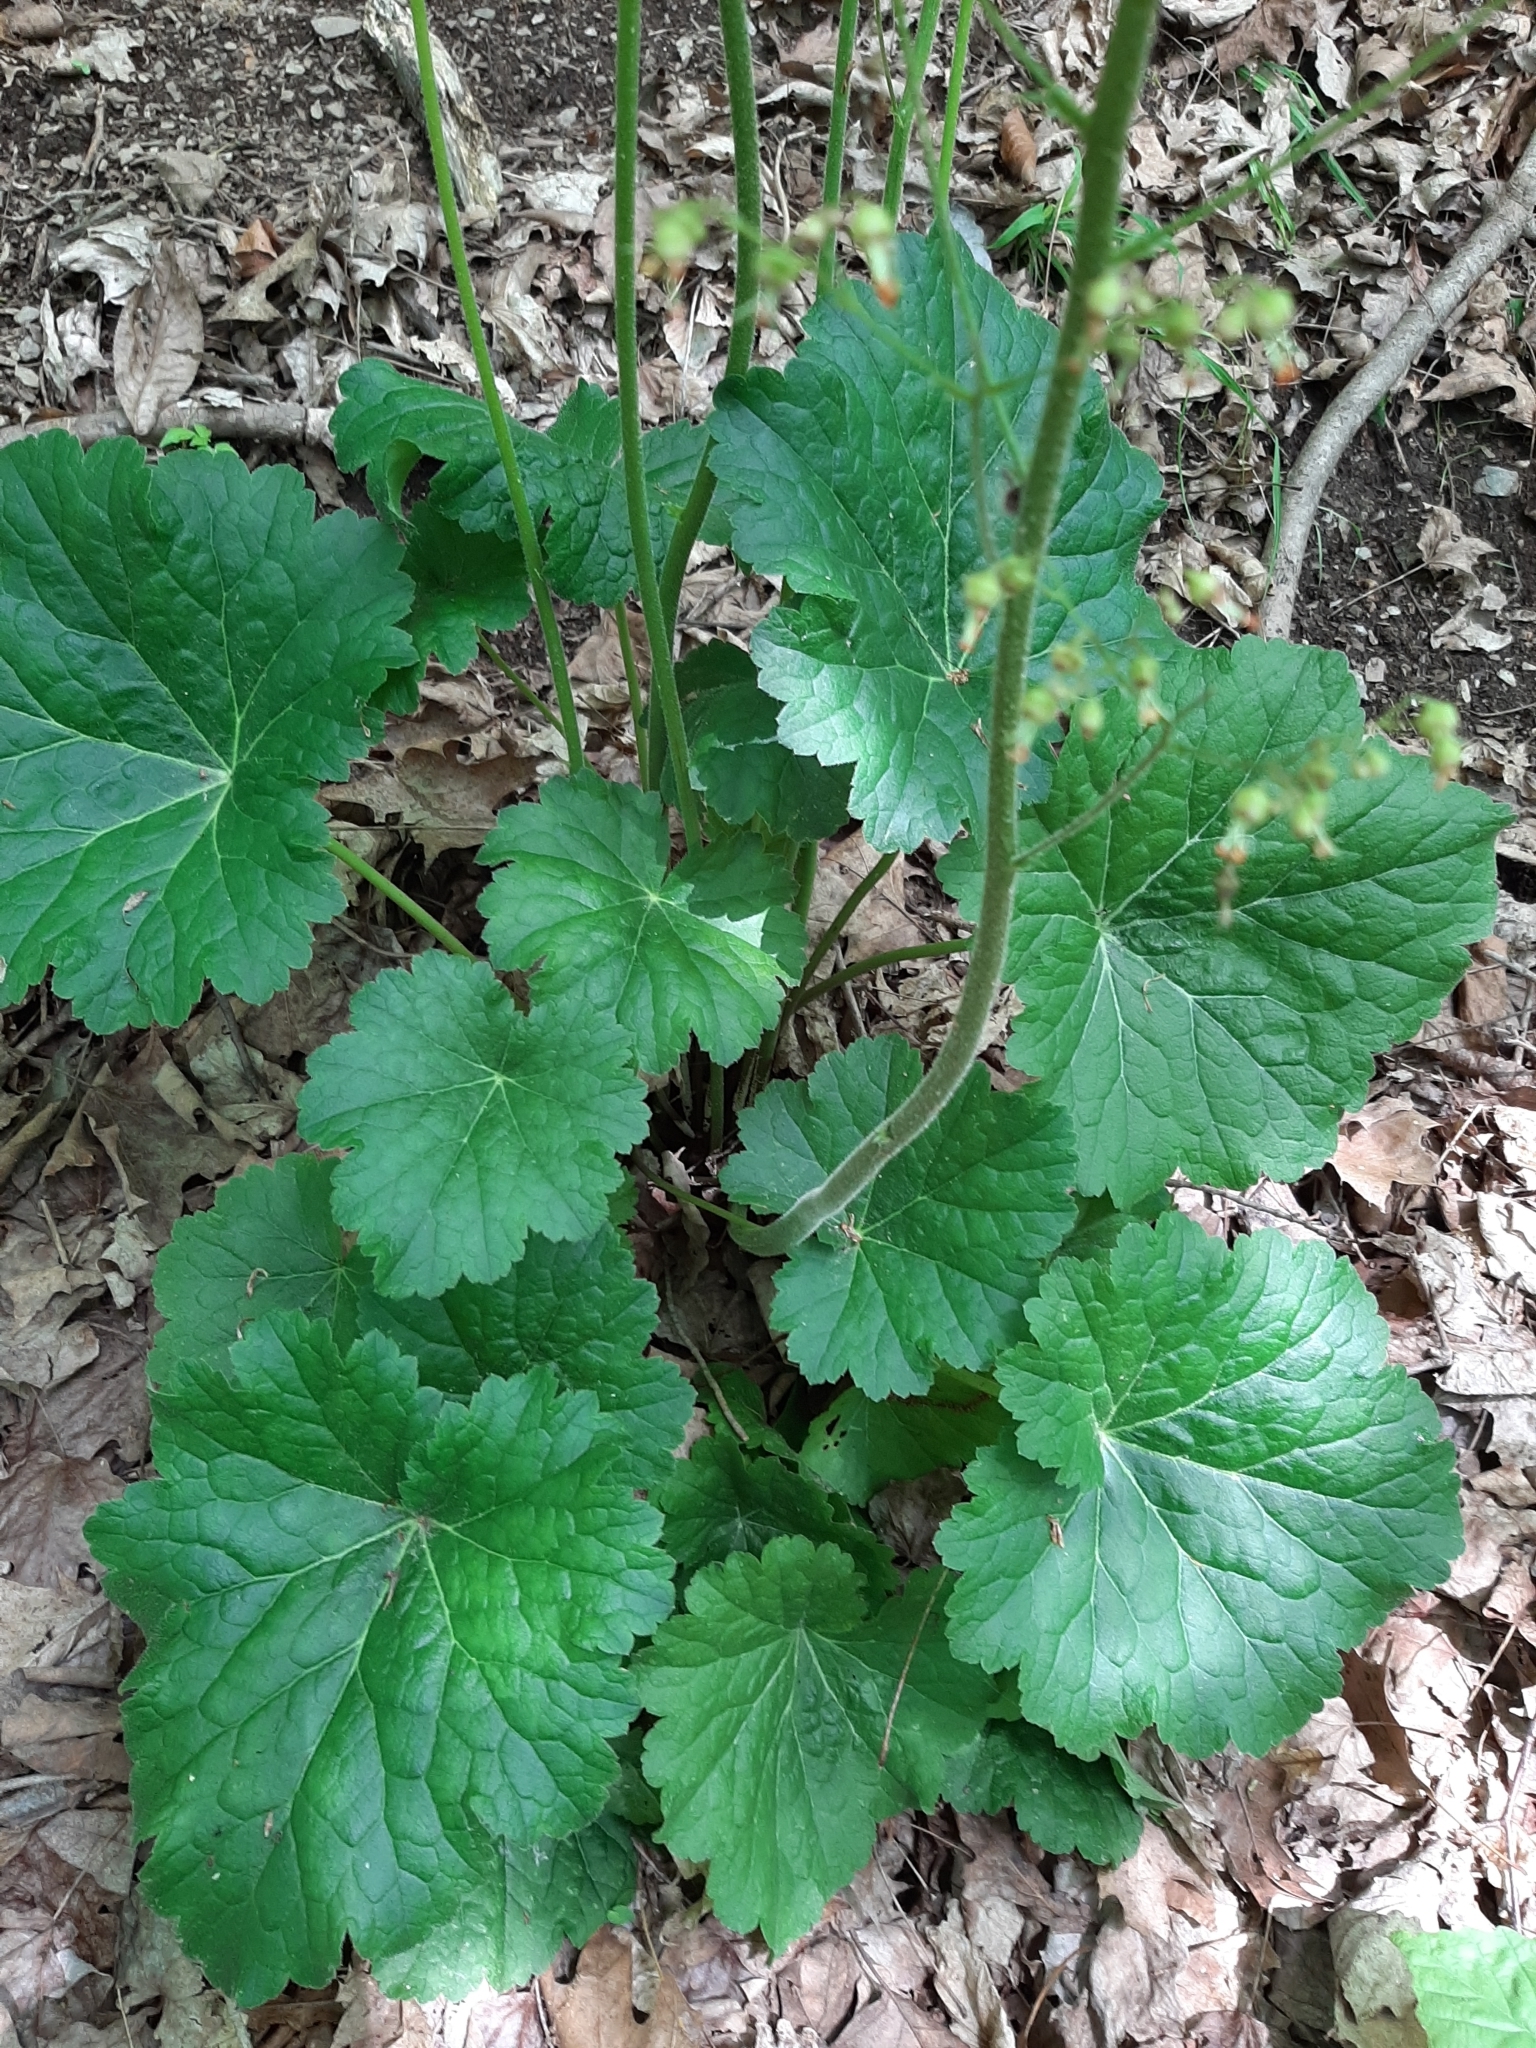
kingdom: Plantae
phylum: Tracheophyta
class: Magnoliopsida
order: Saxifragales
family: Saxifragaceae
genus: Heuchera
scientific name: Heuchera americana
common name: Alumroot
